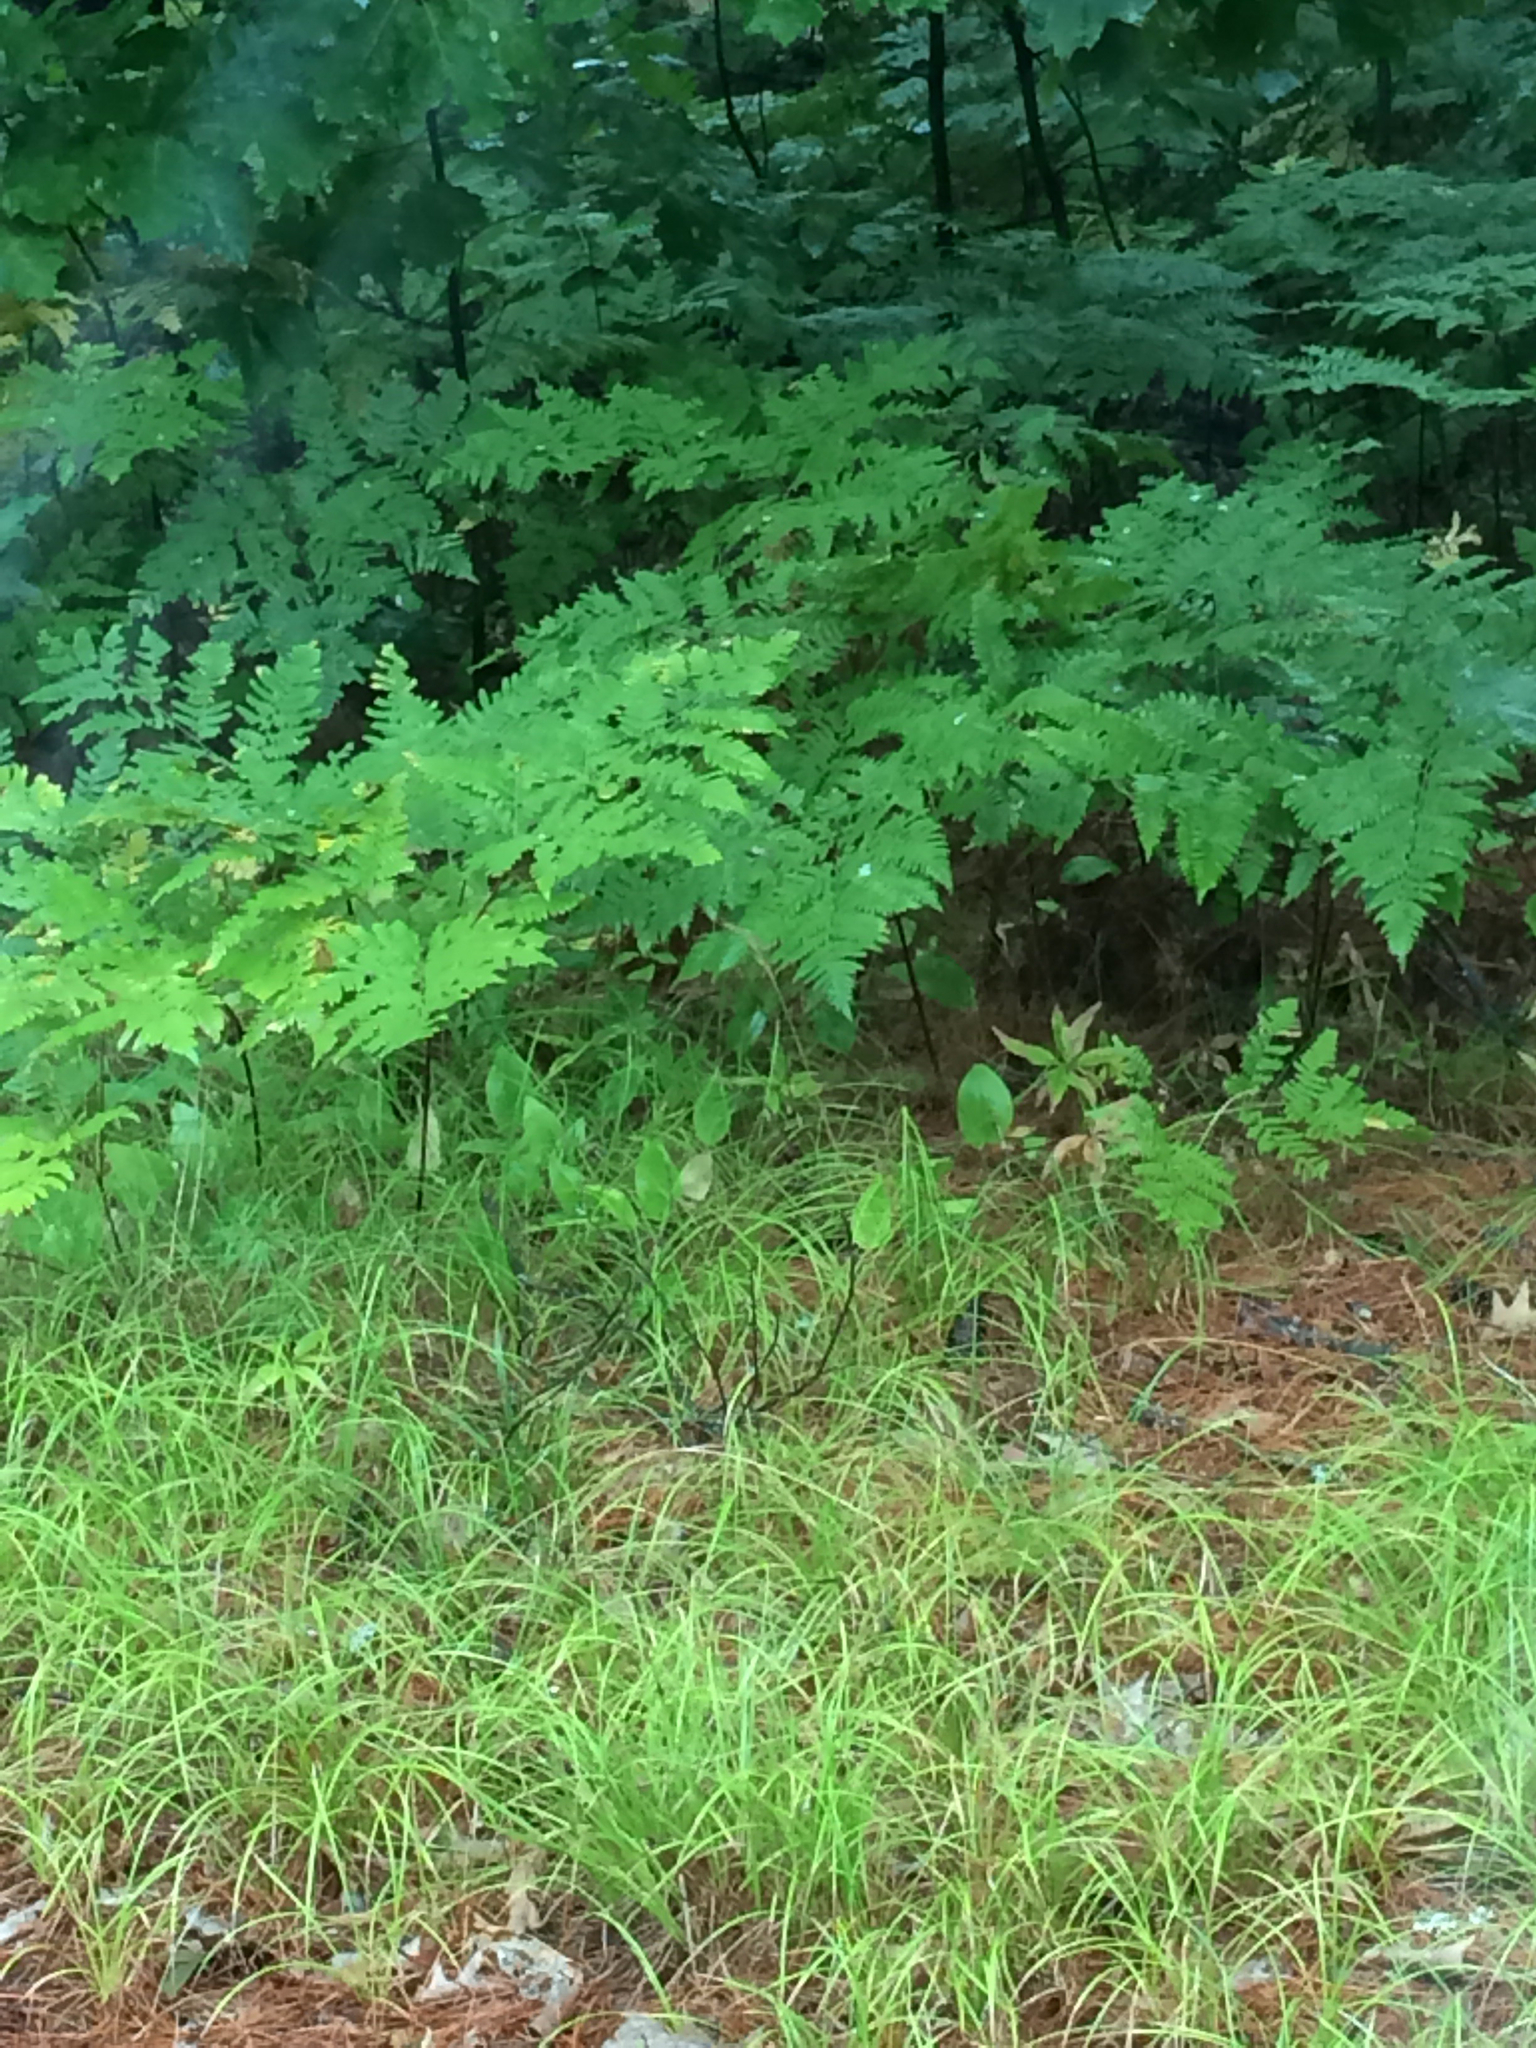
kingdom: Plantae
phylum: Tracheophyta
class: Polypodiopsida
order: Polypodiales
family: Dennstaedtiaceae
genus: Pteridium
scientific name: Pteridium aquilinum
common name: Bracken
